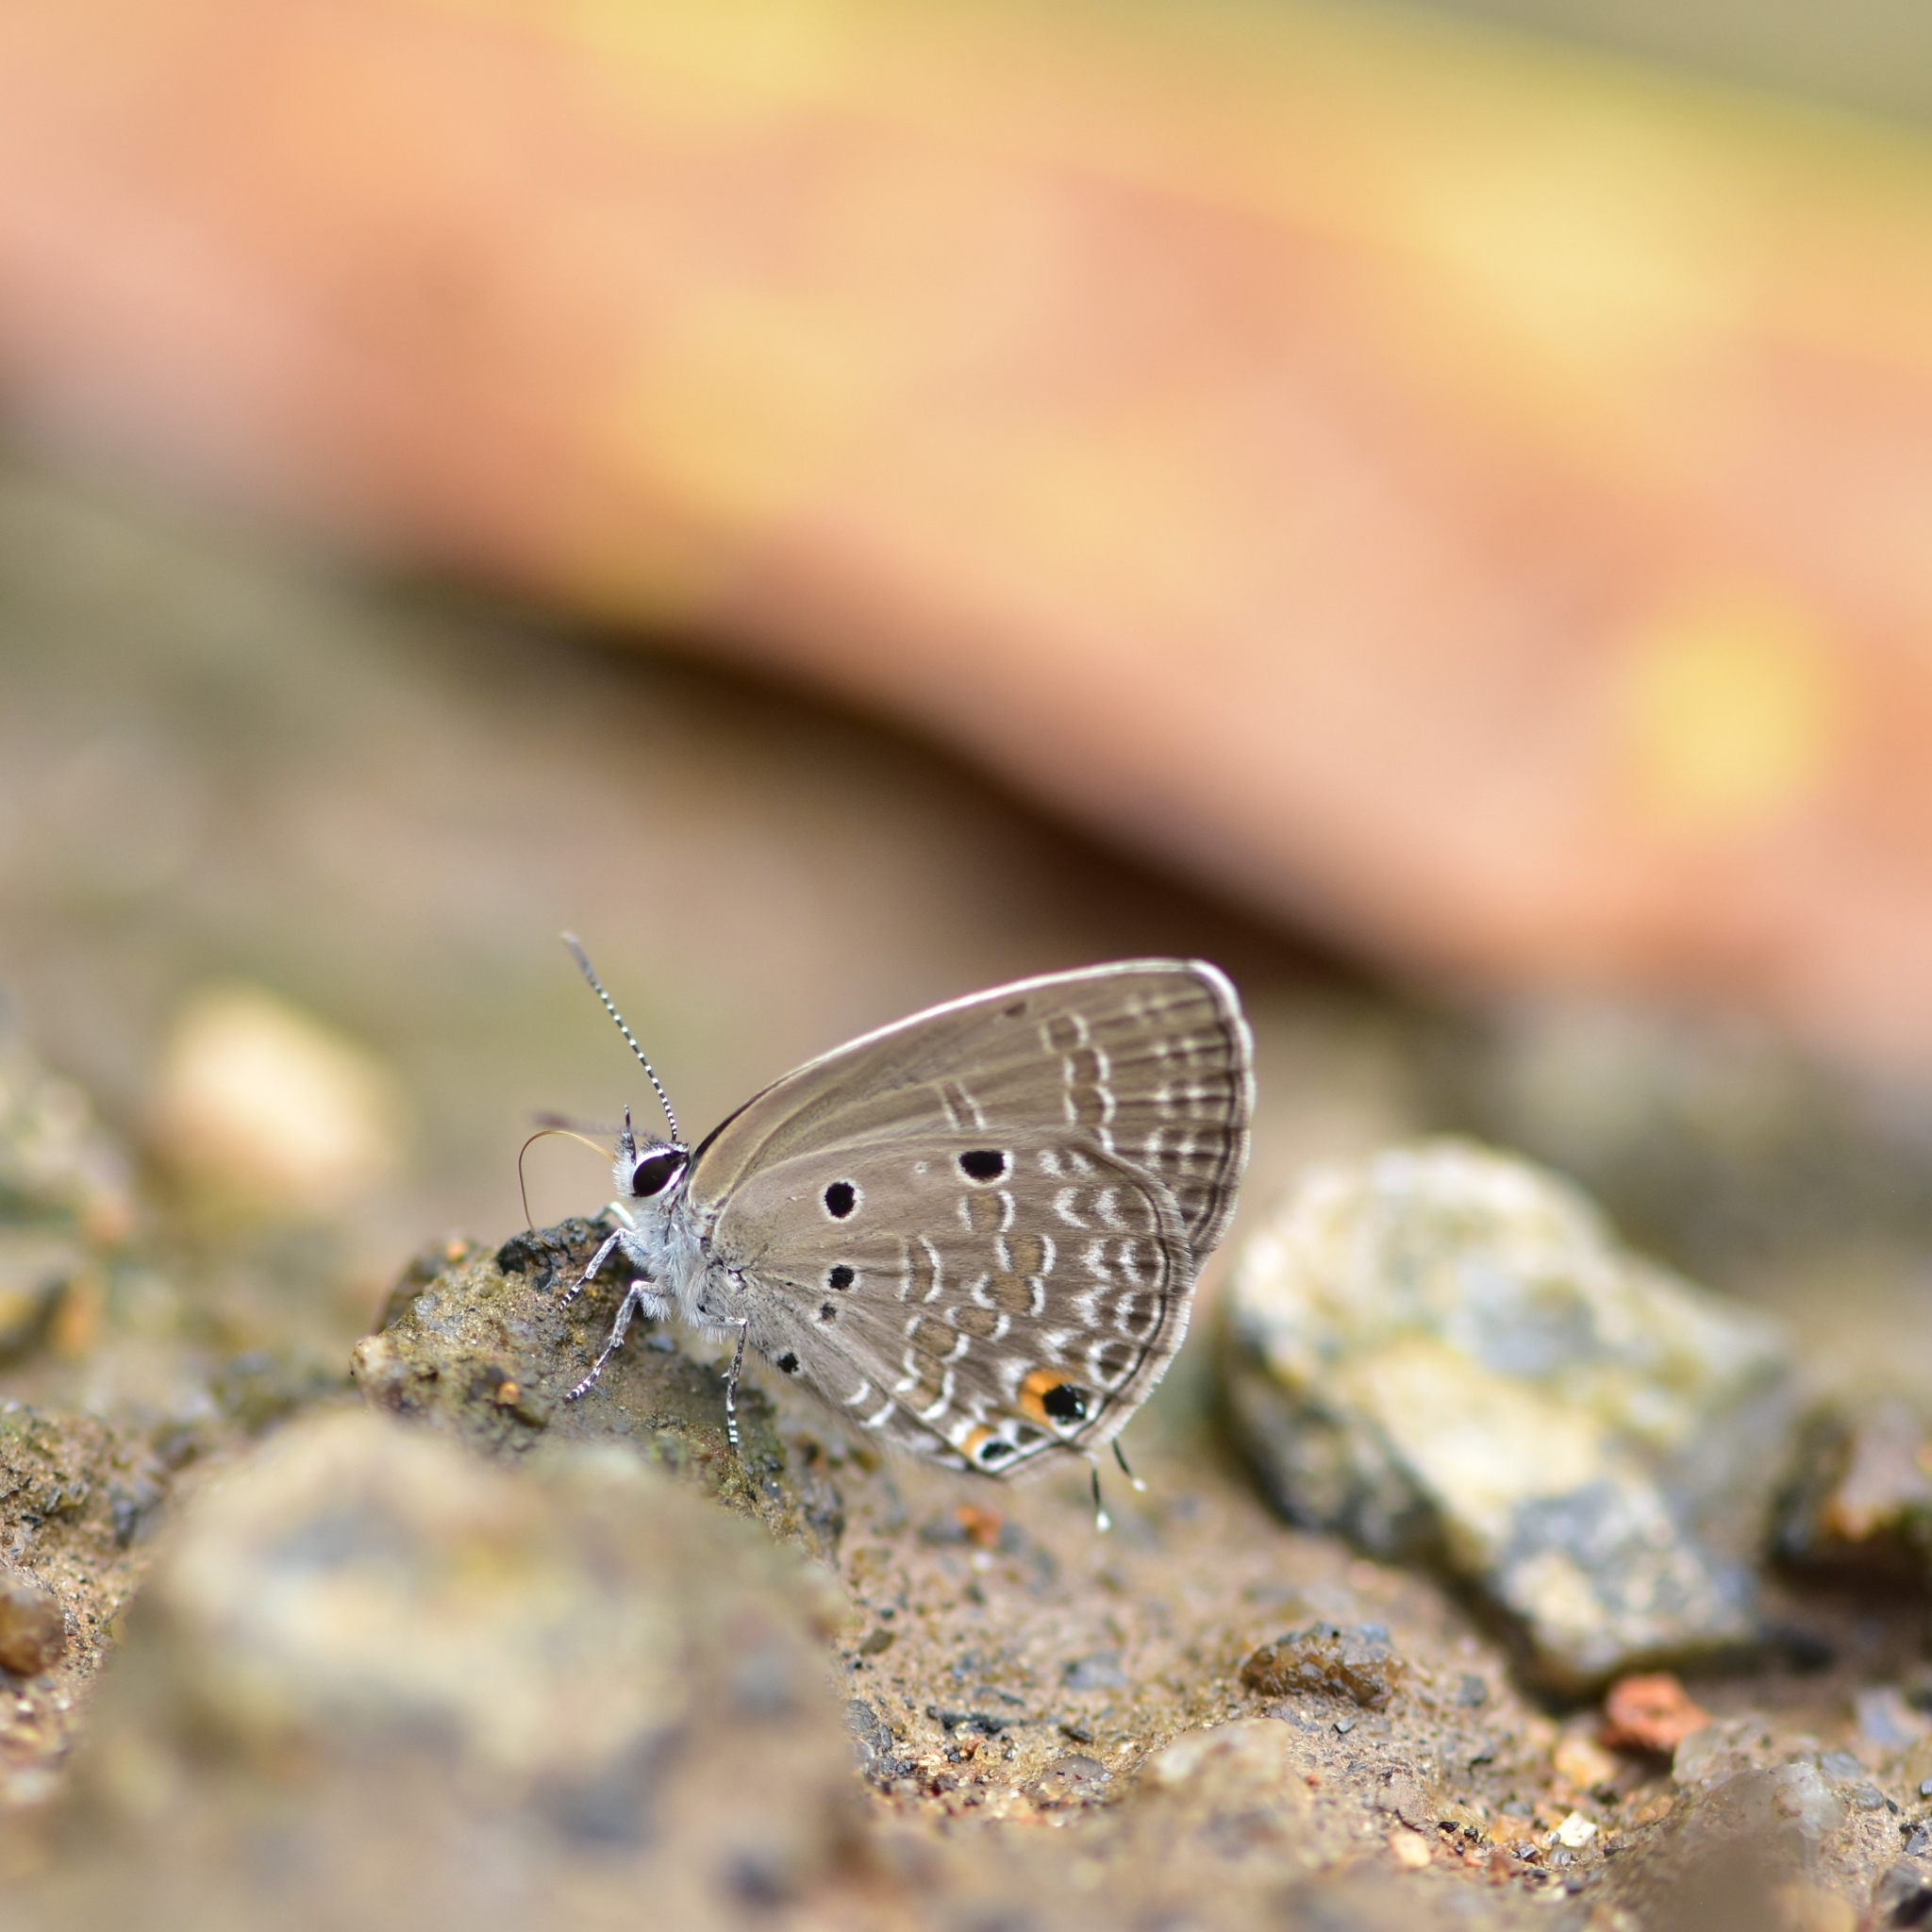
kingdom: Animalia
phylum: Arthropoda
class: Insecta
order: Lepidoptera
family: Lycaenidae
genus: Luthrodes
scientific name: Luthrodes pandava
